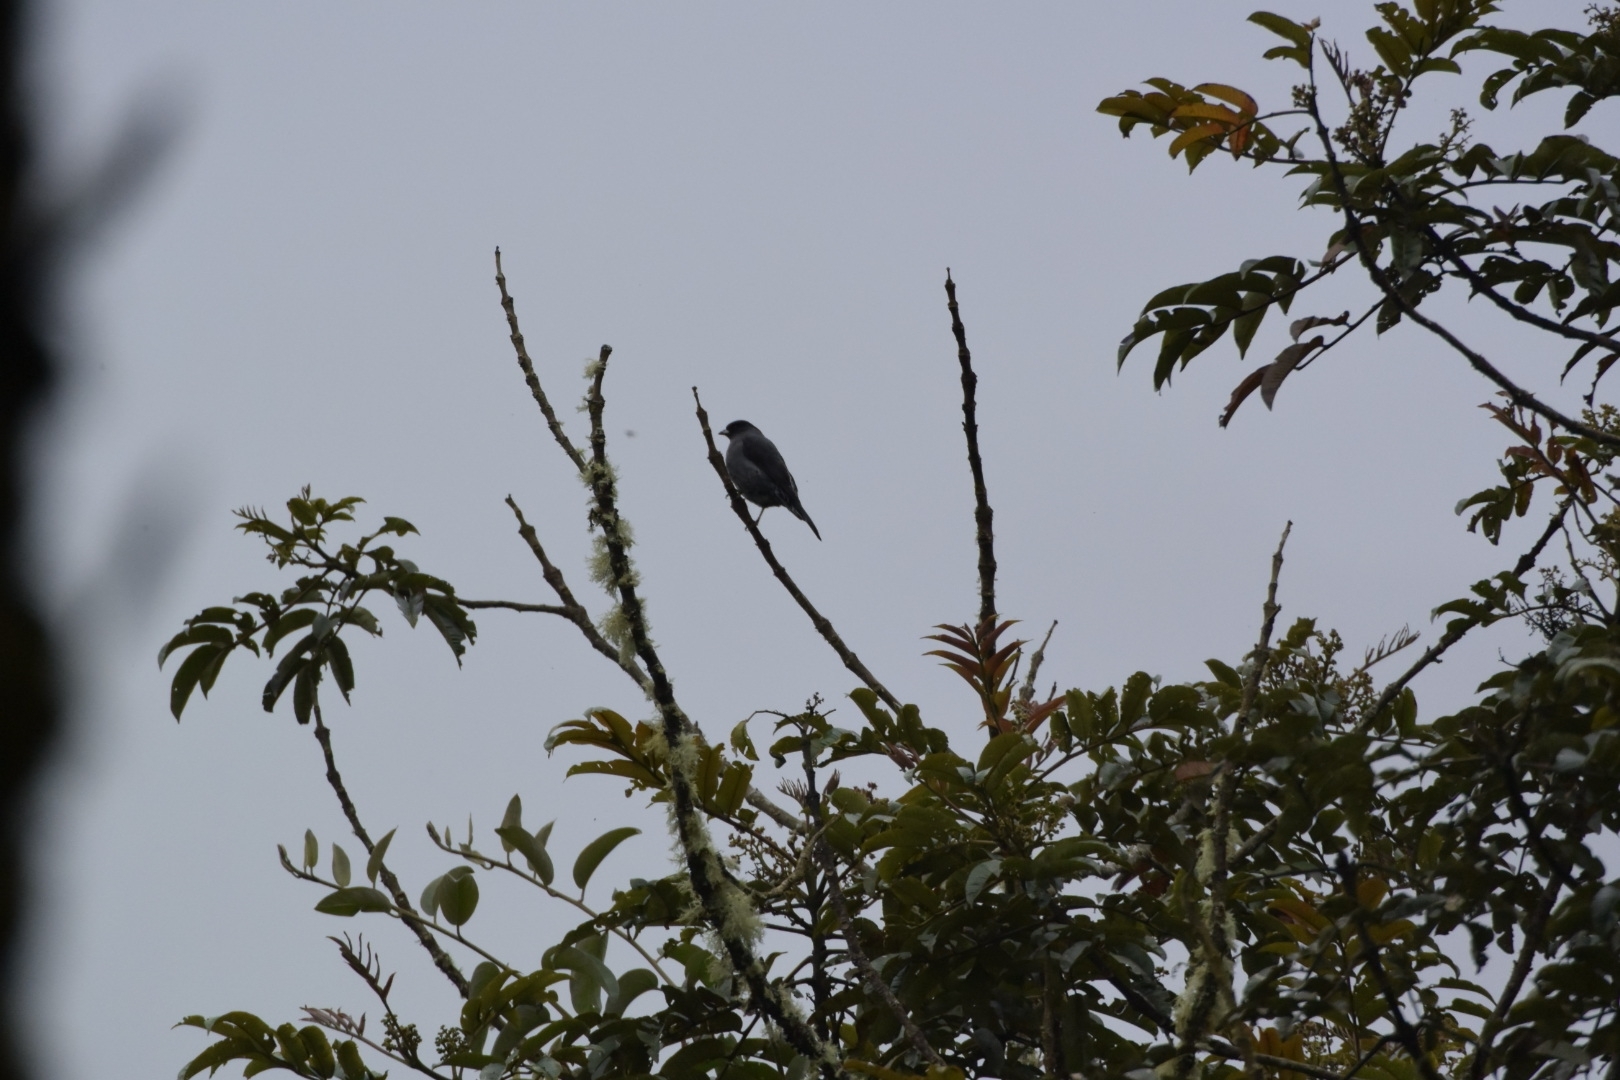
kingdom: Animalia
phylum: Chordata
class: Aves
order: Passeriformes
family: Cotingidae
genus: Ampelion
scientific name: Ampelion rubrocristatus
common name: Red-crested cotinga
